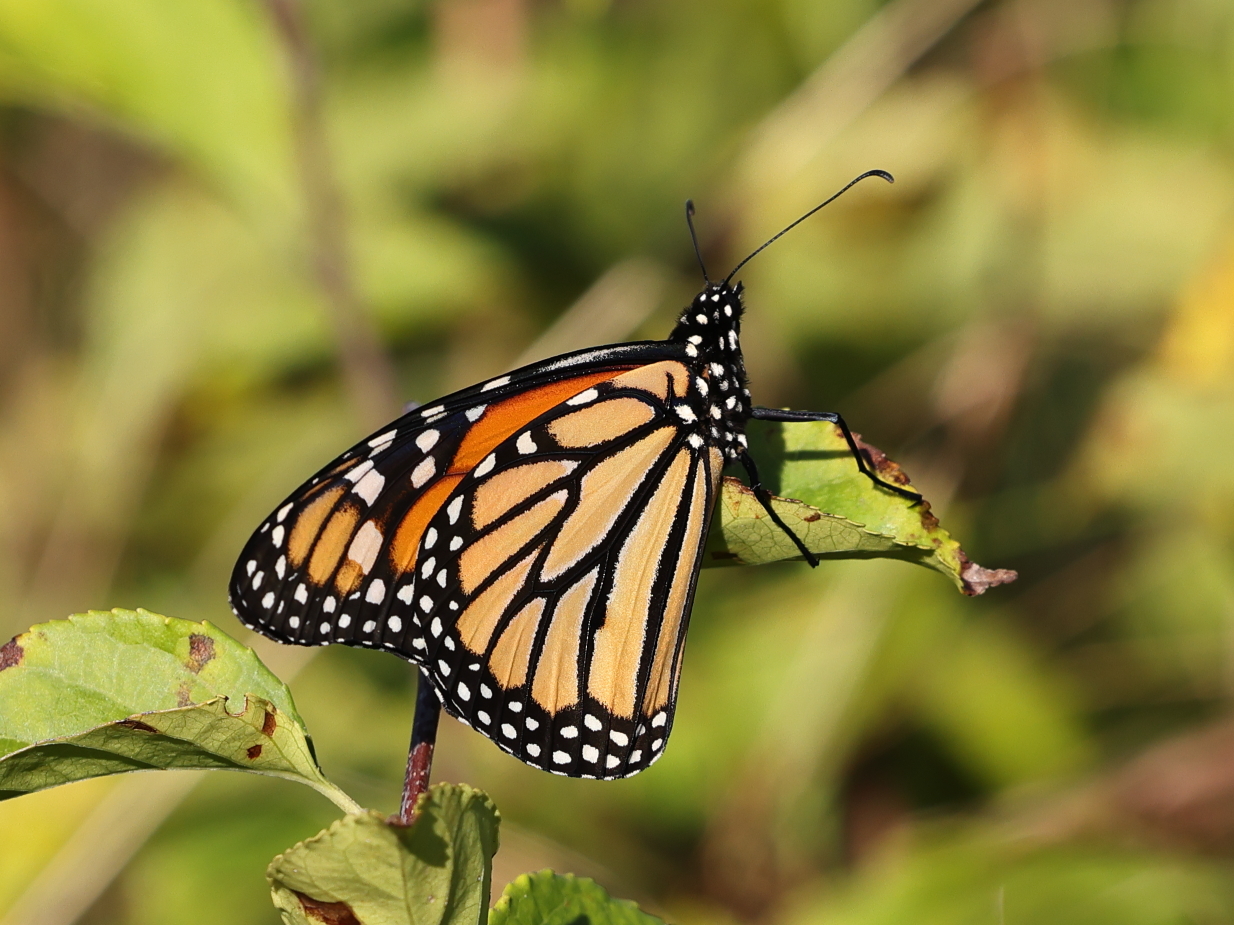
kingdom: Animalia
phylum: Arthropoda
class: Insecta
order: Lepidoptera
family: Nymphalidae
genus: Danaus
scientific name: Danaus plexippus
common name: Monarch
